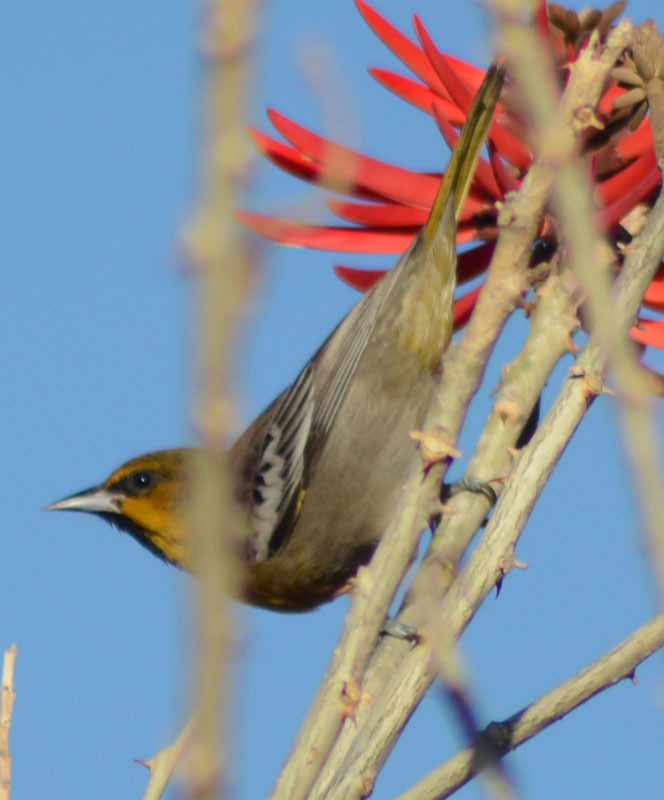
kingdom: Animalia
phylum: Chordata
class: Aves
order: Passeriformes
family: Icteridae
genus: Icterus
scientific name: Icterus abeillei
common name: Black-backed oriole
